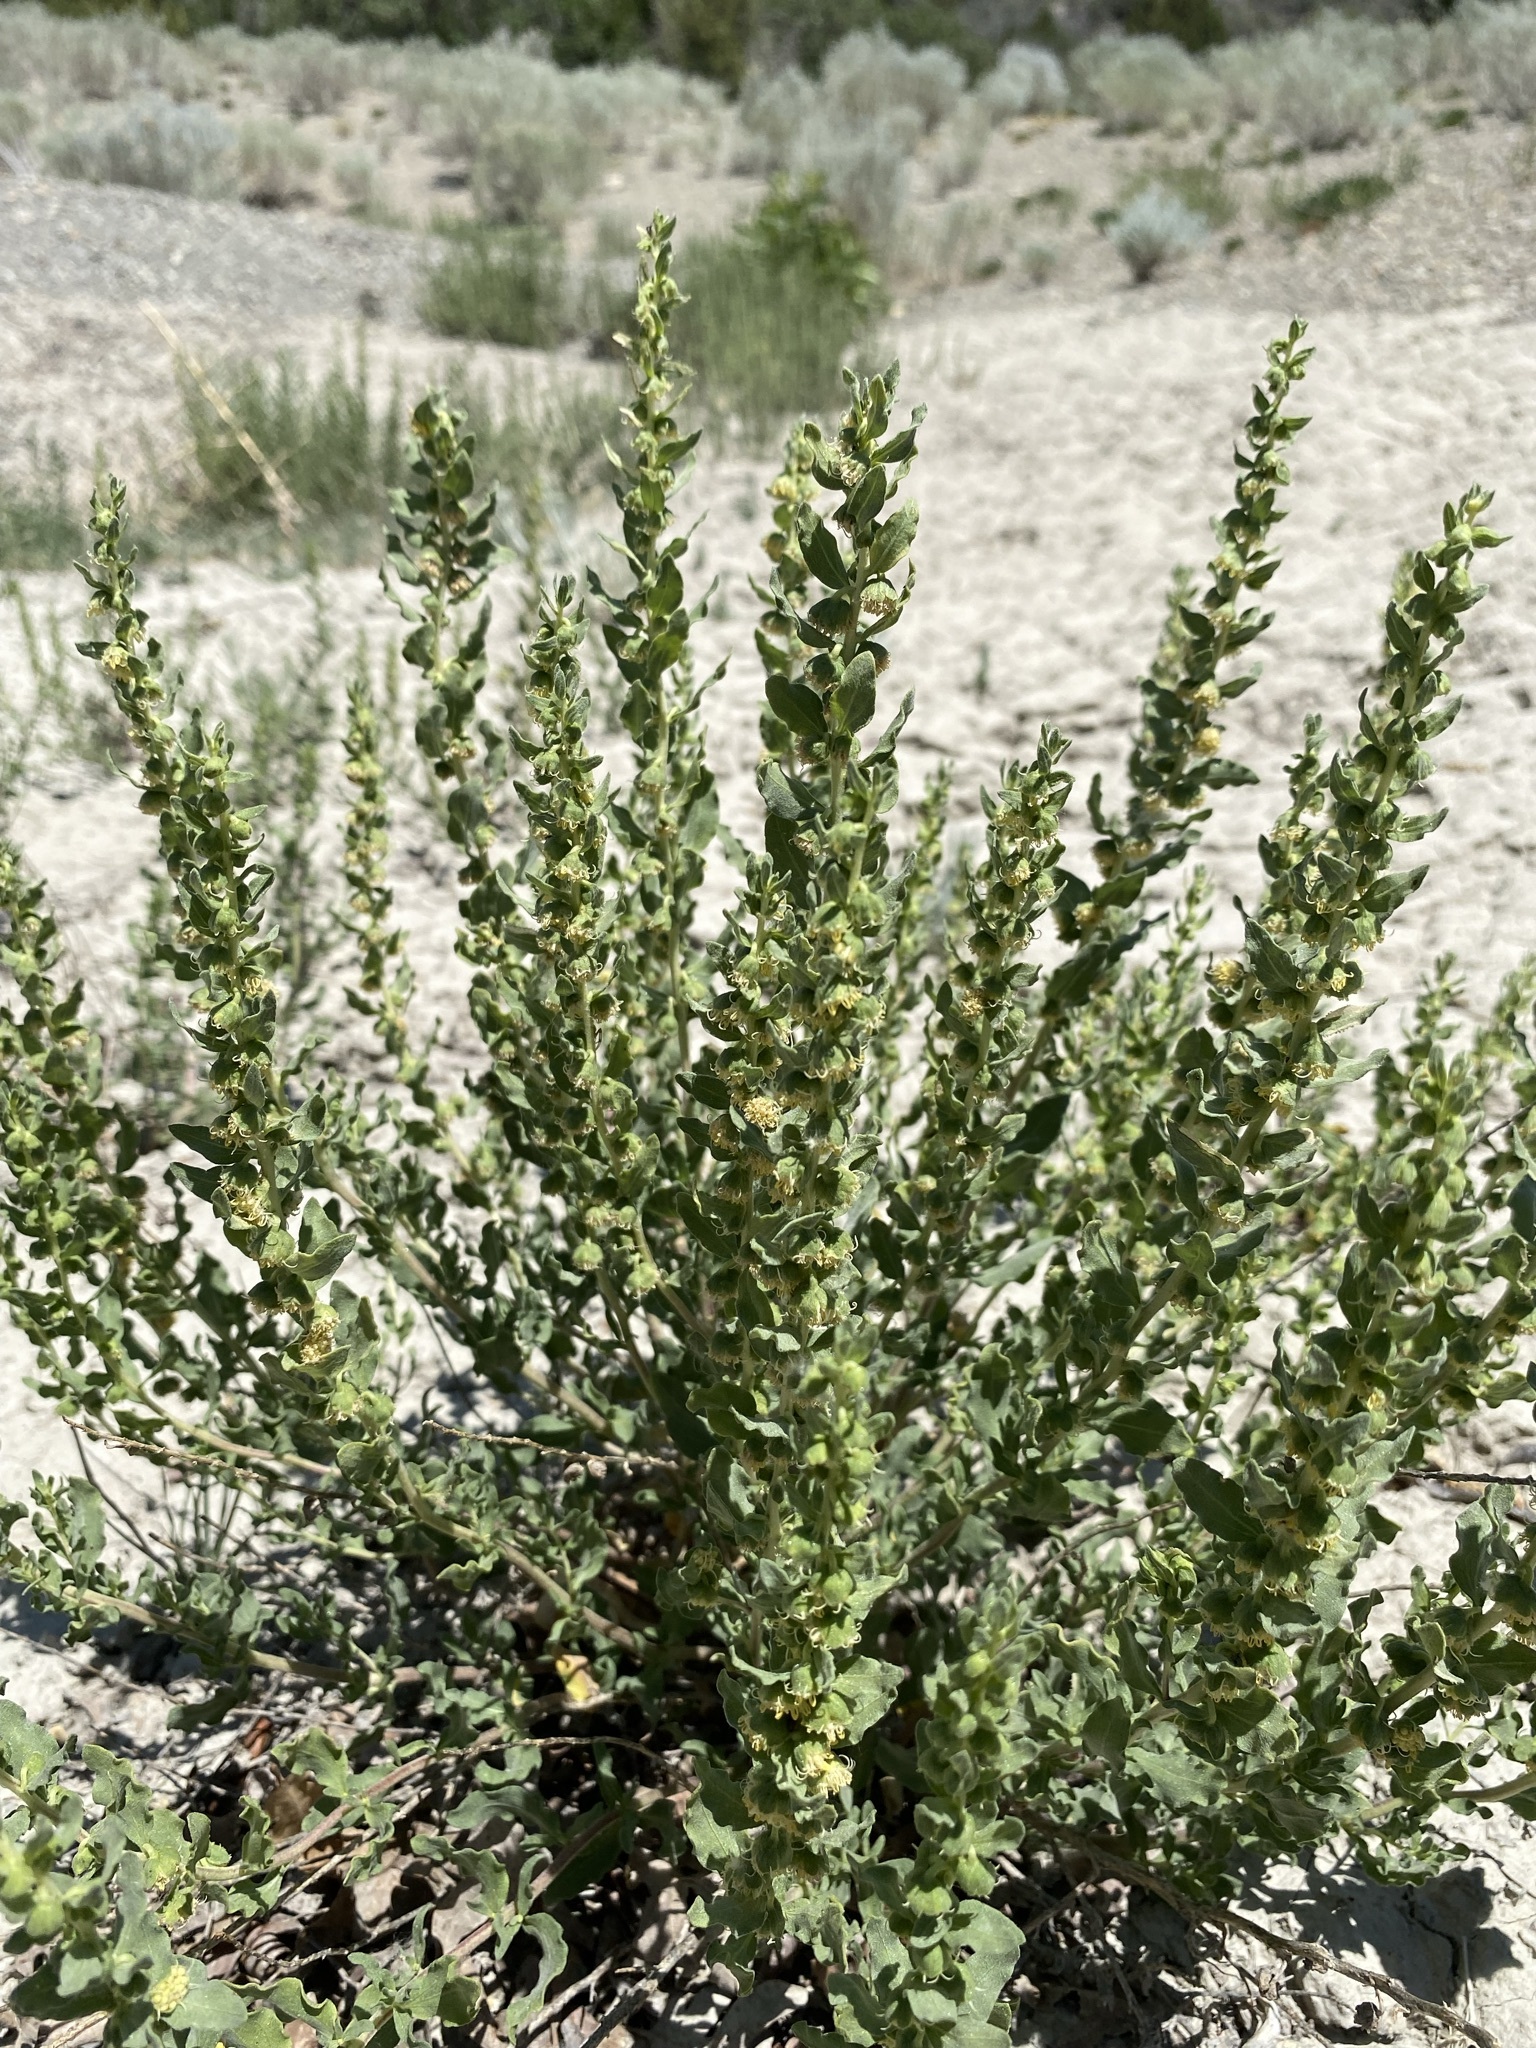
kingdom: Plantae
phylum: Tracheophyta
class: Magnoliopsida
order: Asterales
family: Asteraceae
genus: Iva
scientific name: Iva axillaris
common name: Poverty sumpweed
